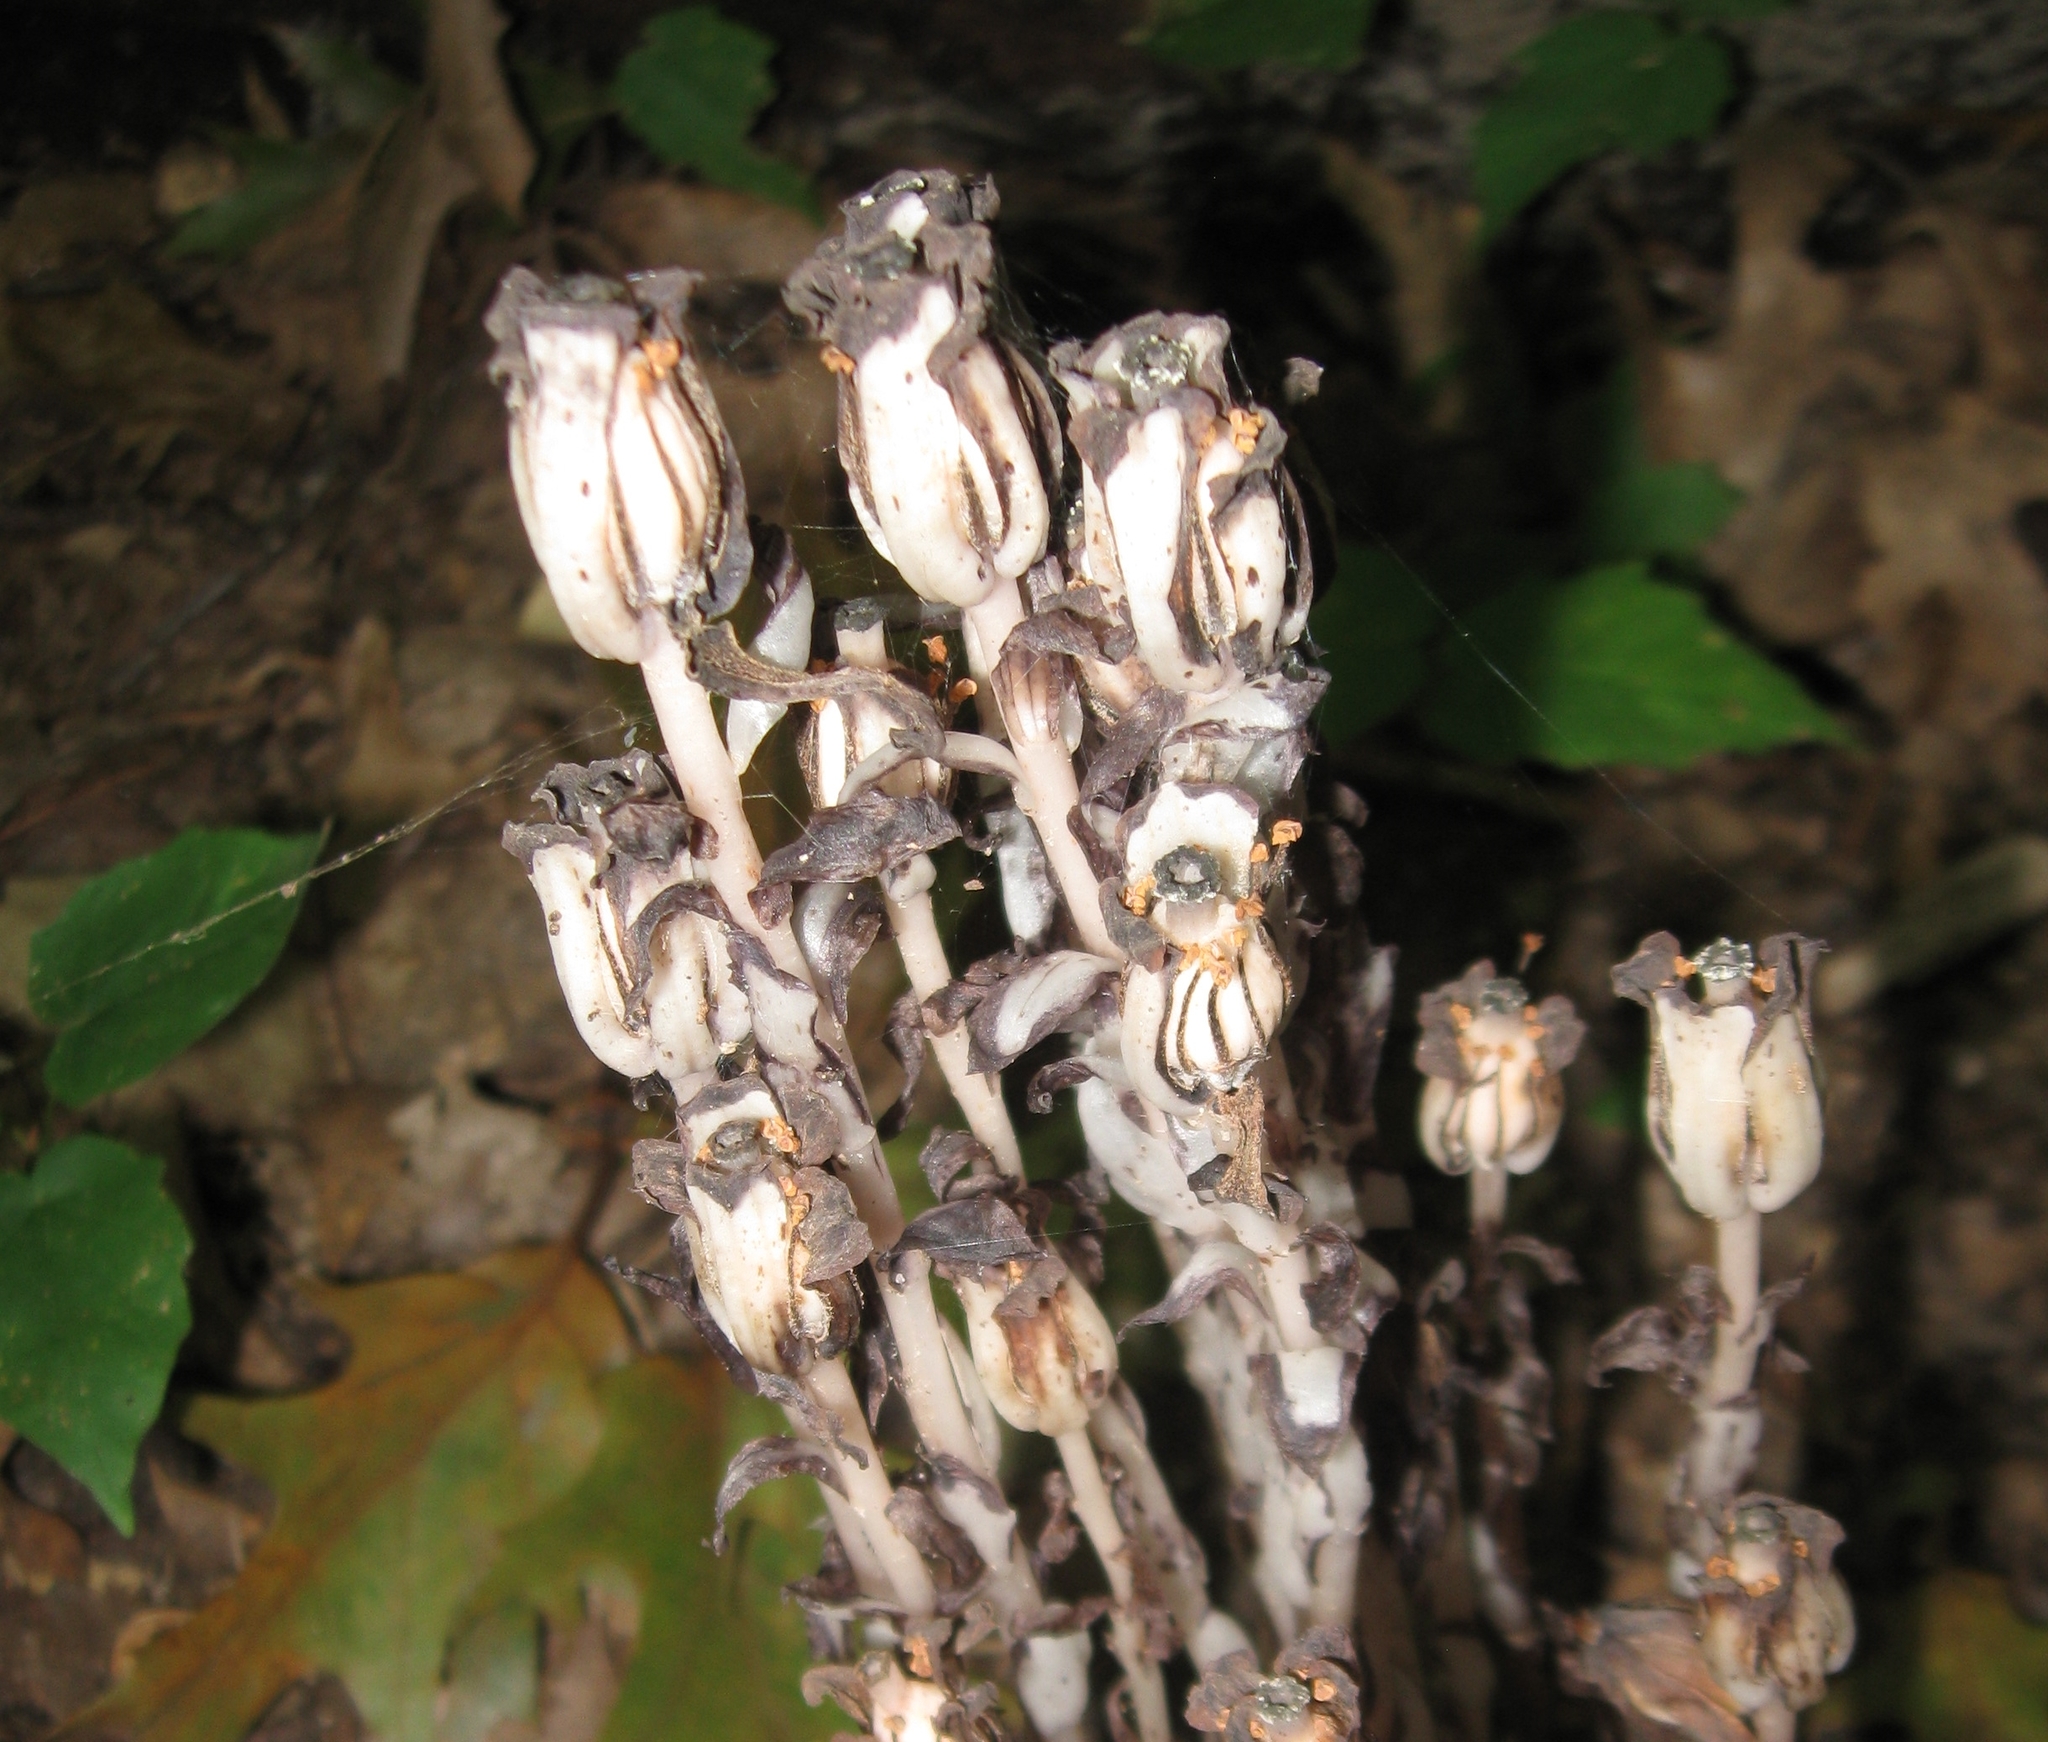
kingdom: Plantae
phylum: Tracheophyta
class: Magnoliopsida
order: Ericales
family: Ericaceae
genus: Monotropa
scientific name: Monotropa uniflora
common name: Convulsion root
